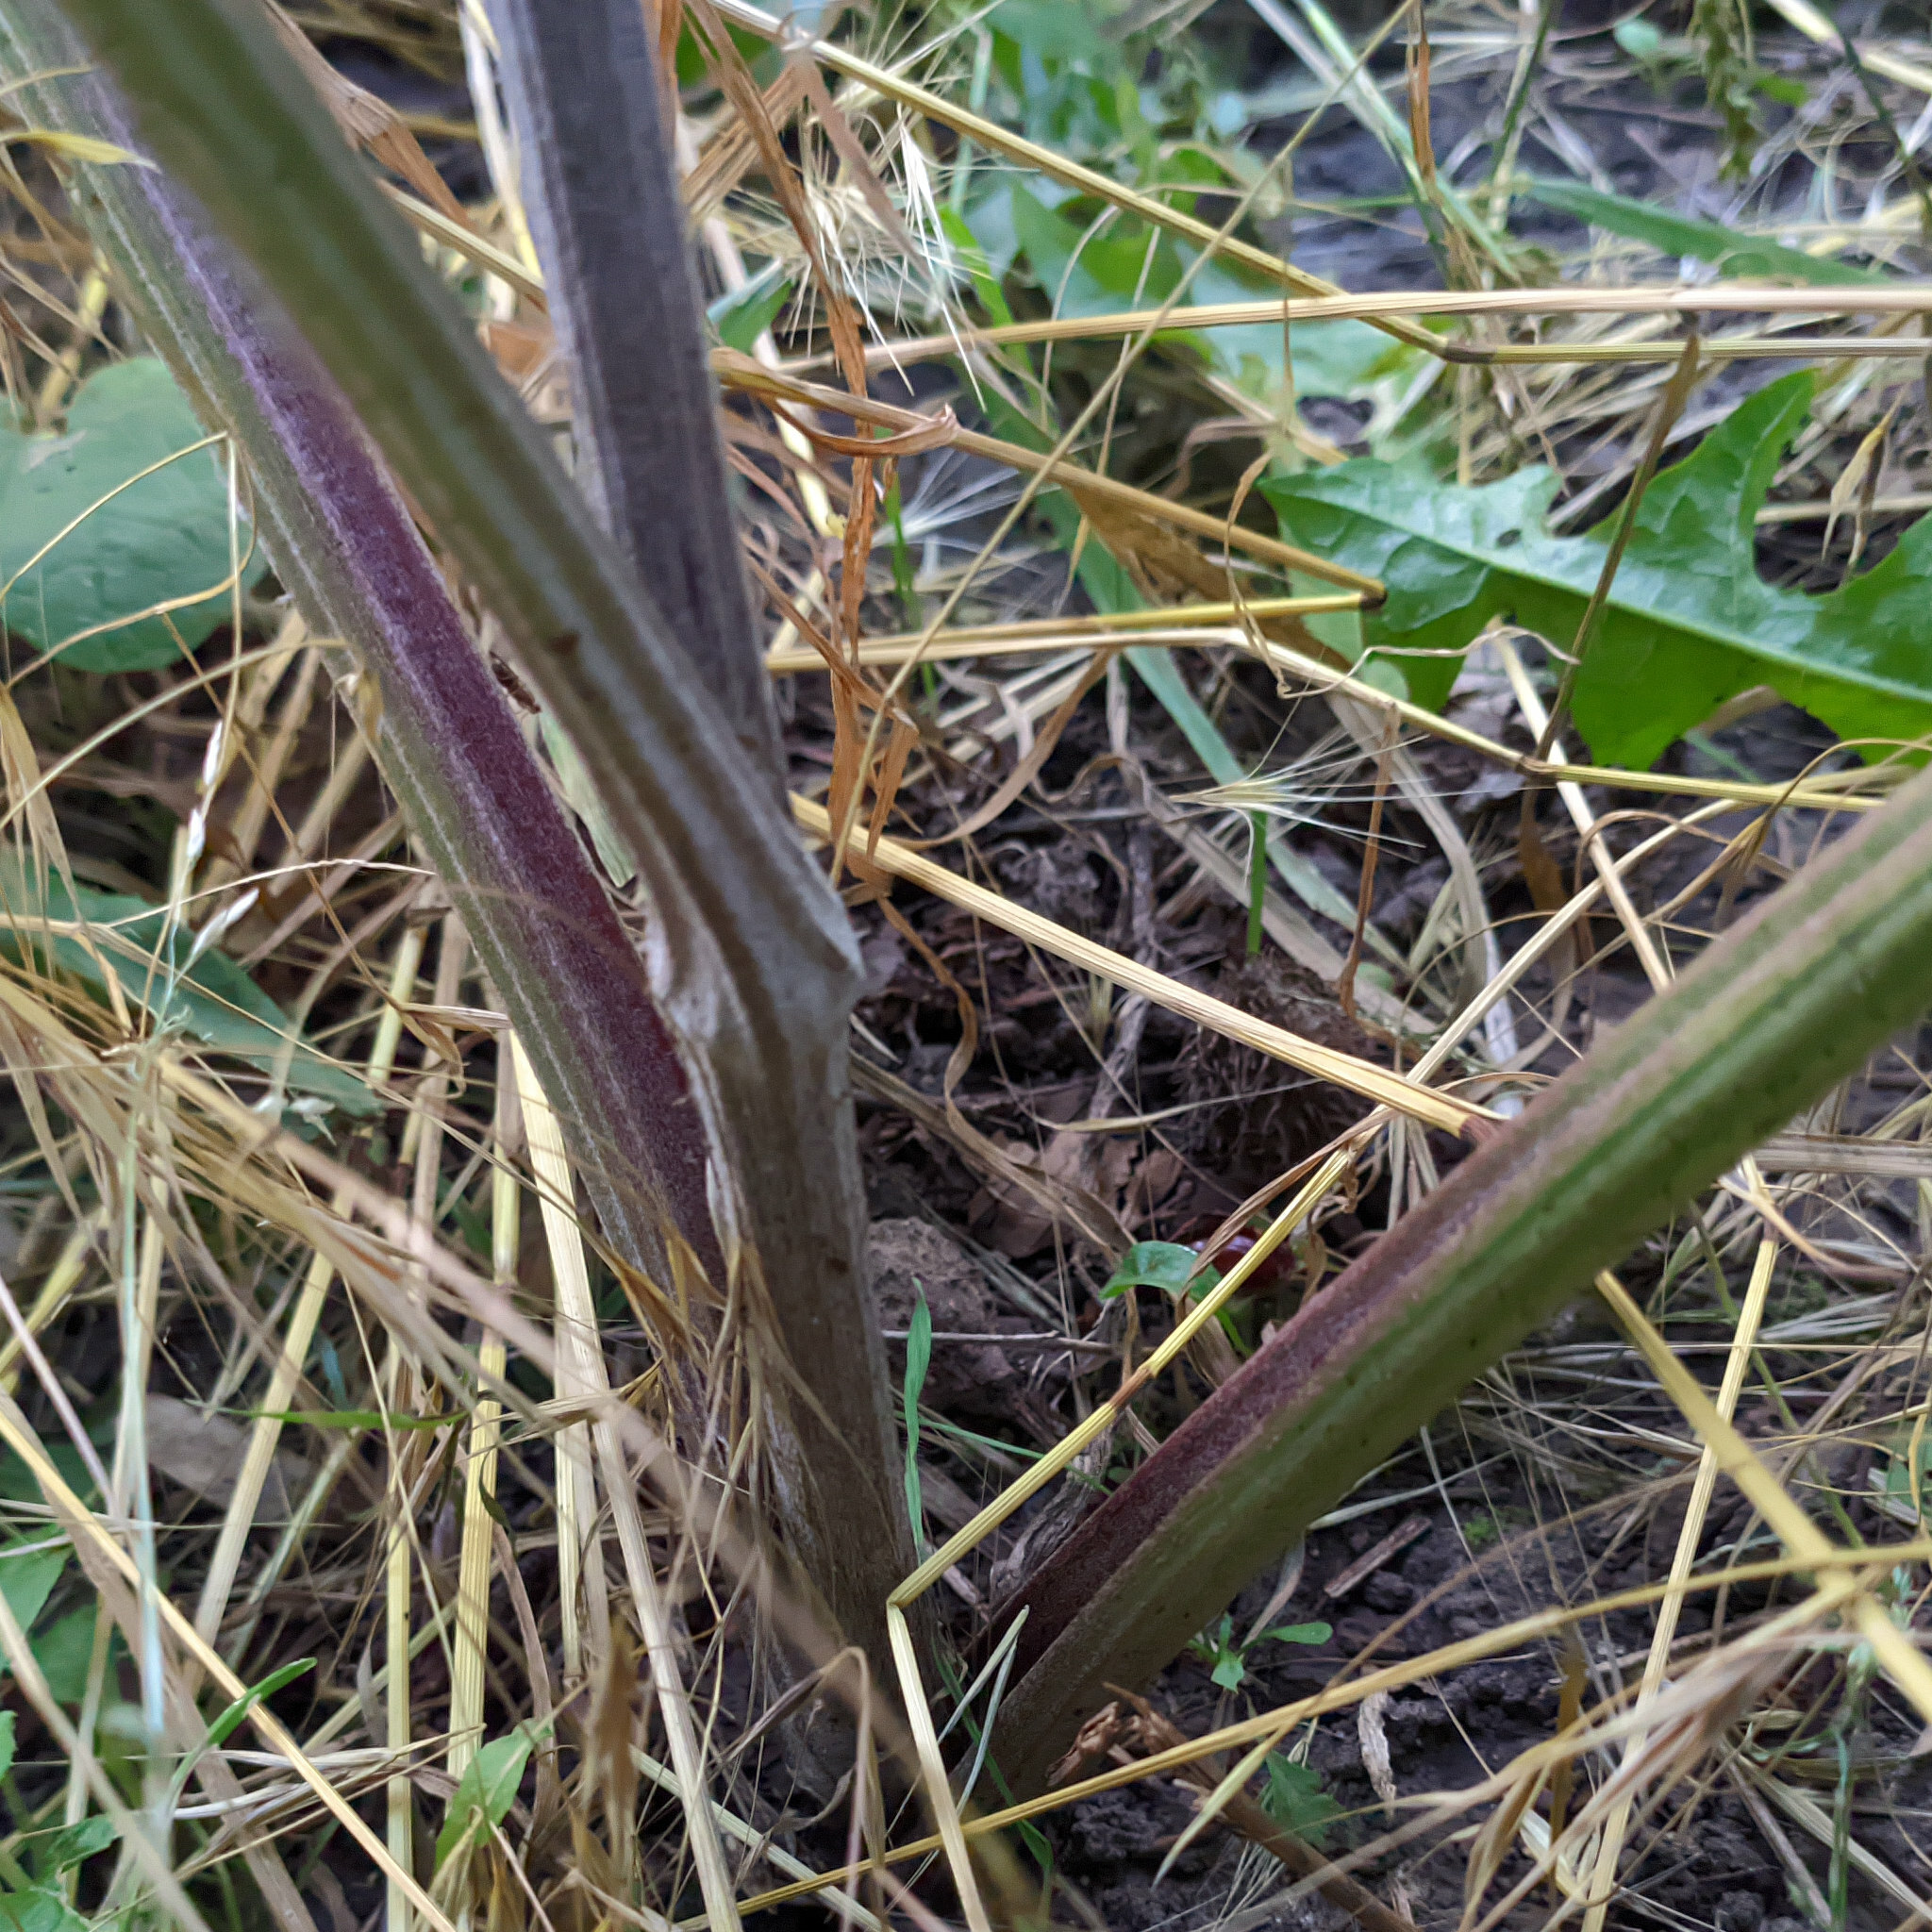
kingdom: Plantae
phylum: Tracheophyta
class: Magnoliopsida
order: Asterales
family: Asteraceae
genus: Arctium
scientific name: Arctium lappa
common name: Greater burdock
